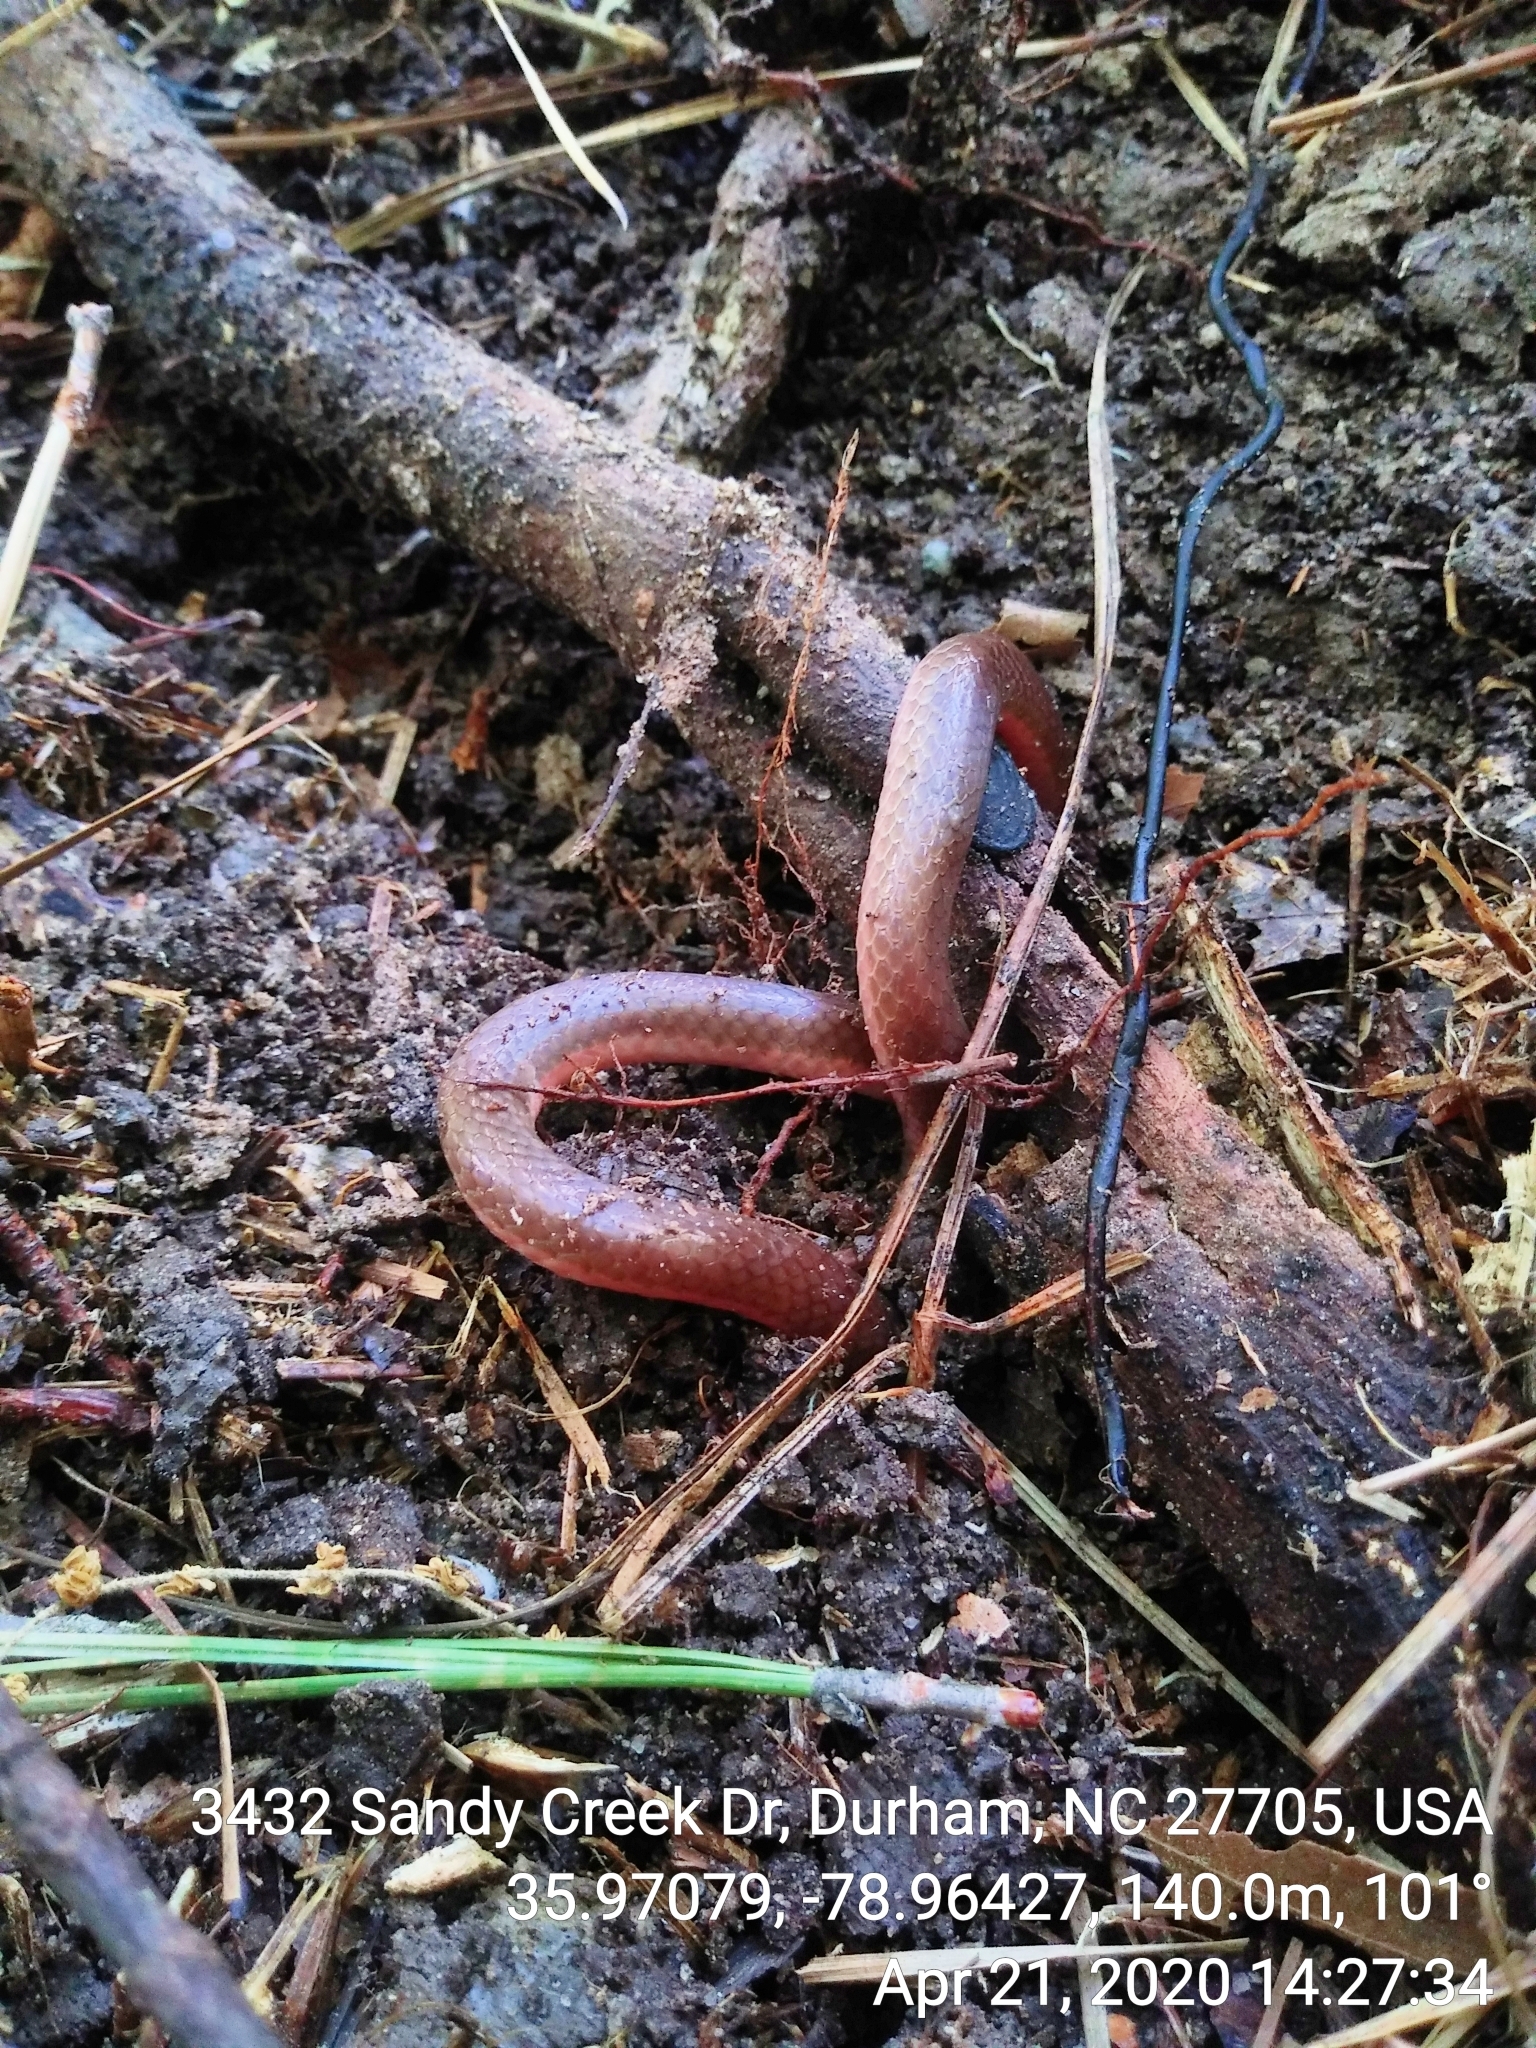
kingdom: Animalia
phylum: Chordata
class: Squamata
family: Colubridae
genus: Carphophis
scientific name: Carphophis amoenus
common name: Eastern worm snake
